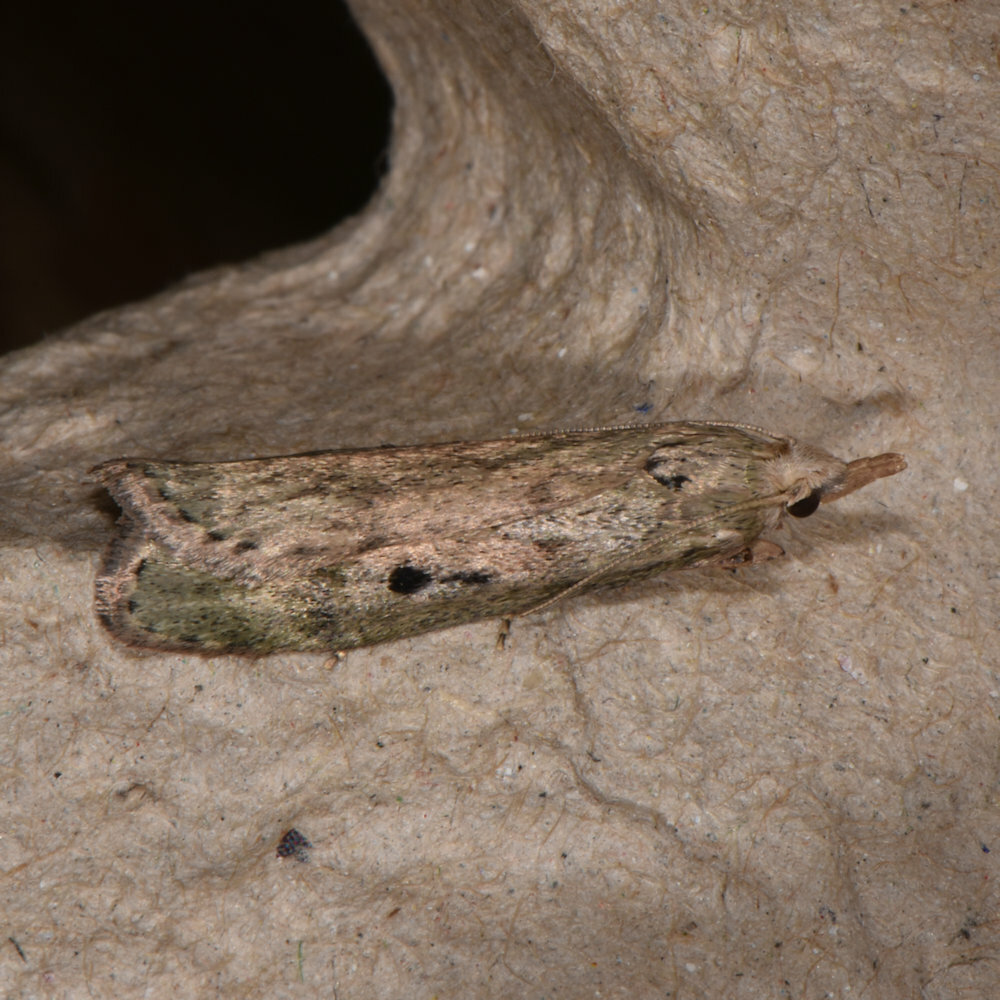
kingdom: Animalia
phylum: Arthropoda
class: Insecta
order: Lepidoptera
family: Pyralidae
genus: Aphomia
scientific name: Aphomia sociella
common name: Bee moth
